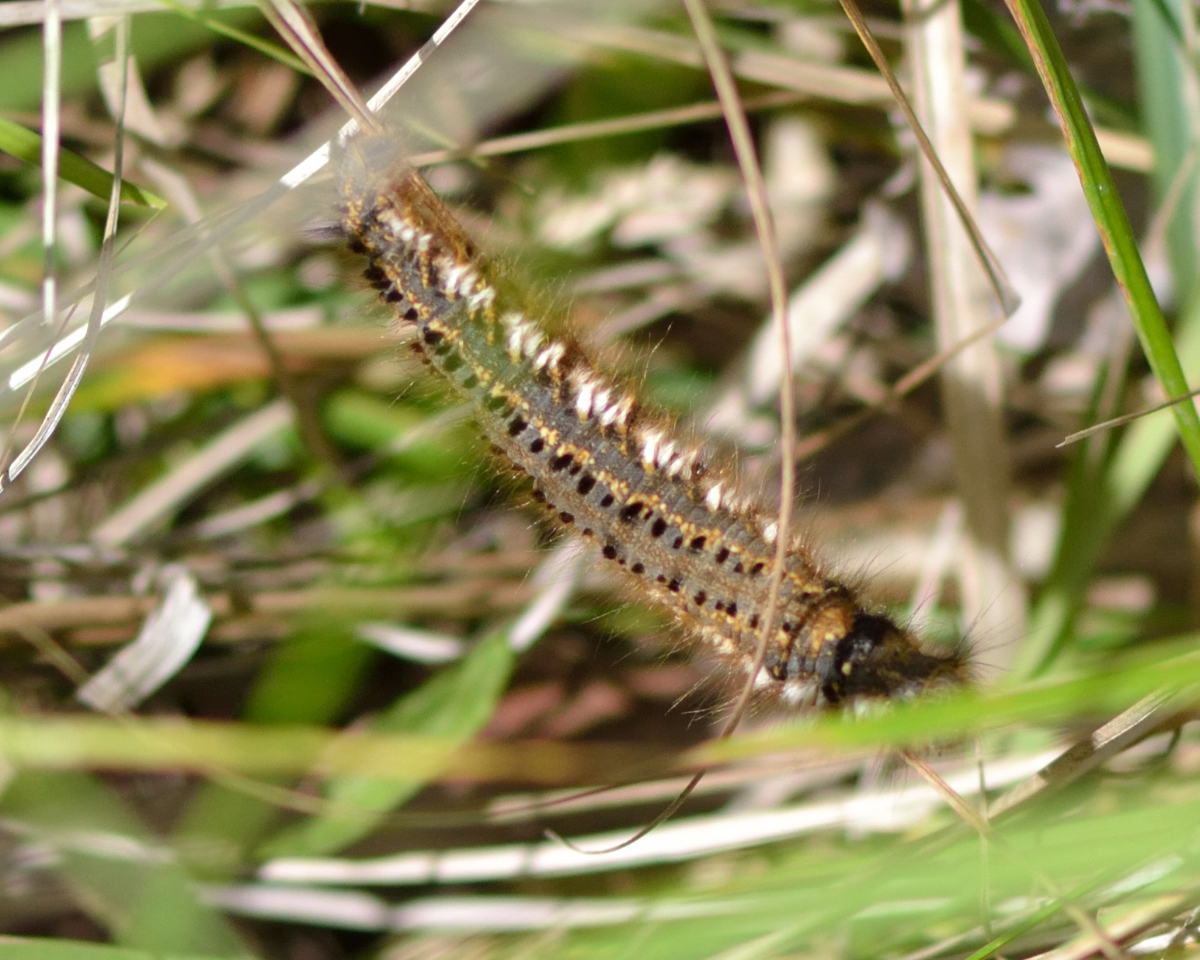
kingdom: Animalia
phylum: Arthropoda
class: Insecta
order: Lepidoptera
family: Lasiocampidae
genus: Euthrix
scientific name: Euthrix potatoria
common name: Drinker
